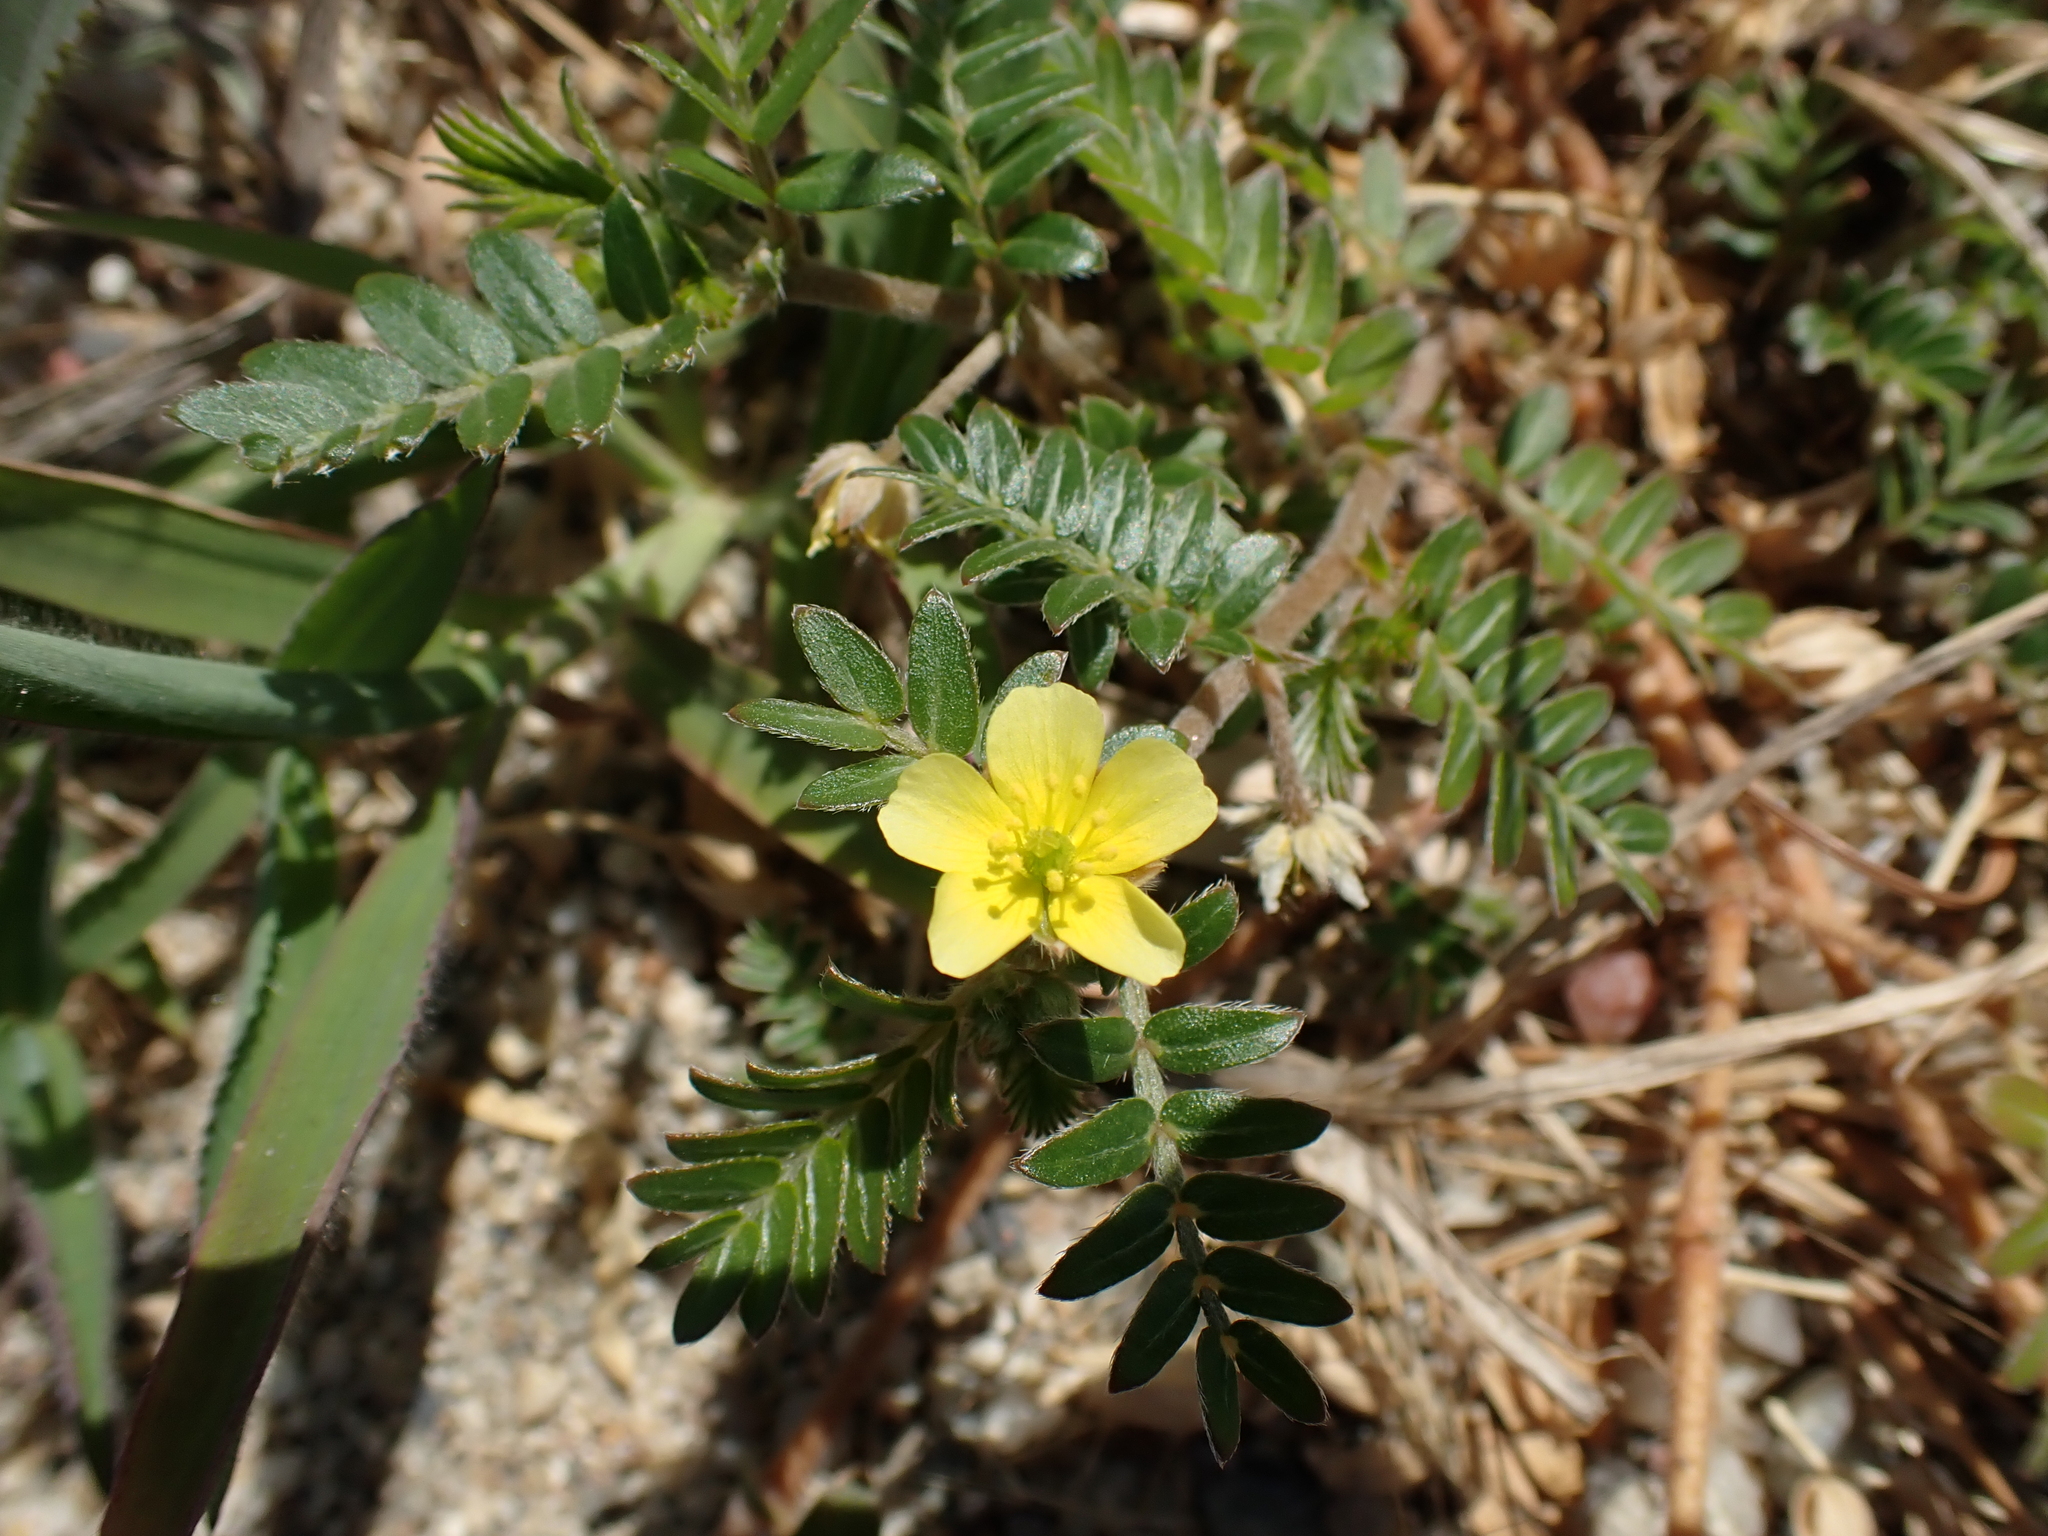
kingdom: Plantae
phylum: Tracheophyta
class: Magnoliopsida
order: Zygophyllales
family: Zygophyllaceae
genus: Tribulus
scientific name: Tribulus terrestris
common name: Puncturevine
